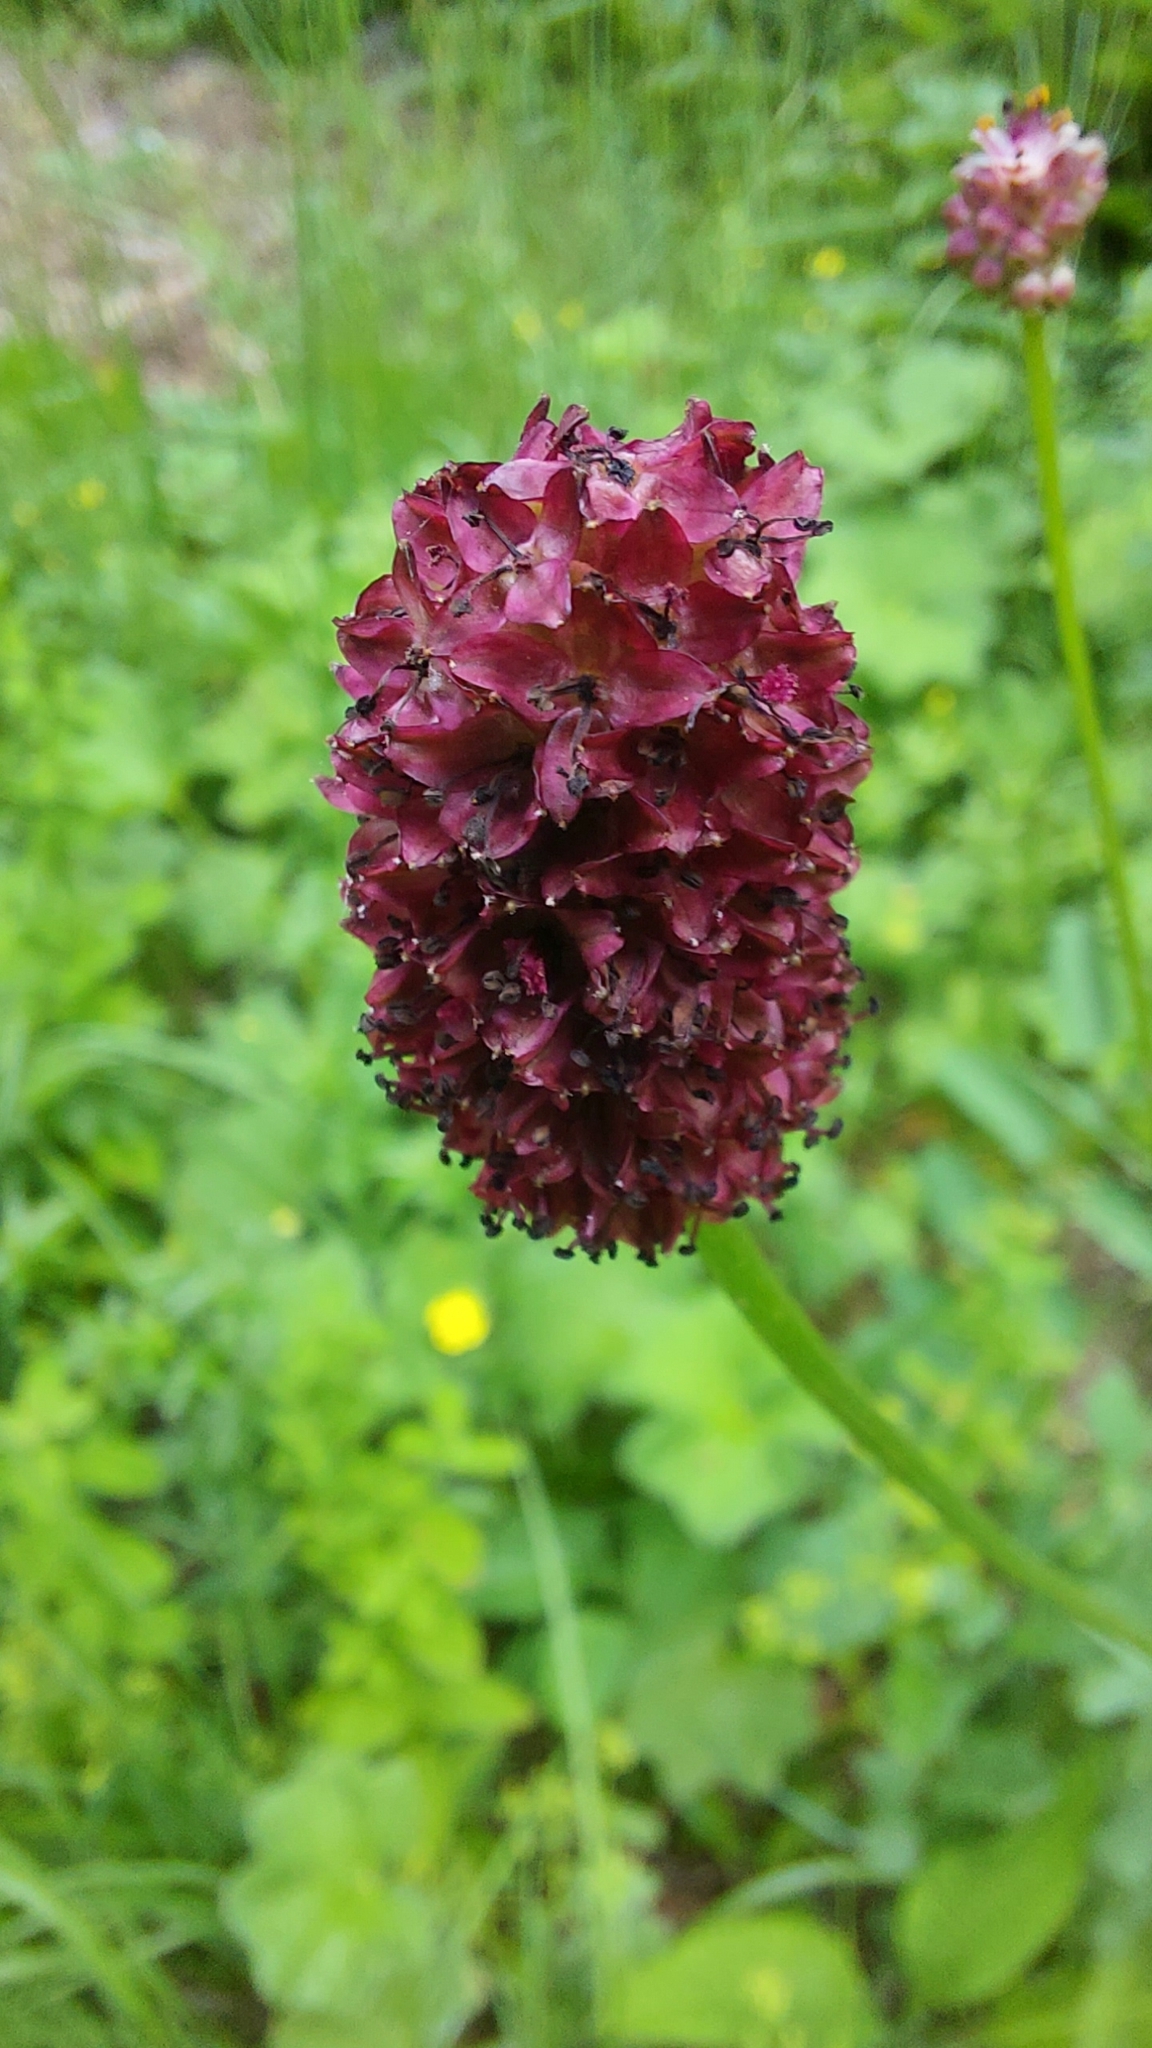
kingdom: Plantae
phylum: Tracheophyta
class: Magnoliopsida
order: Rosales
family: Rosaceae
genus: Sanguisorba
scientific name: Sanguisorba officinalis
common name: Great burnet
